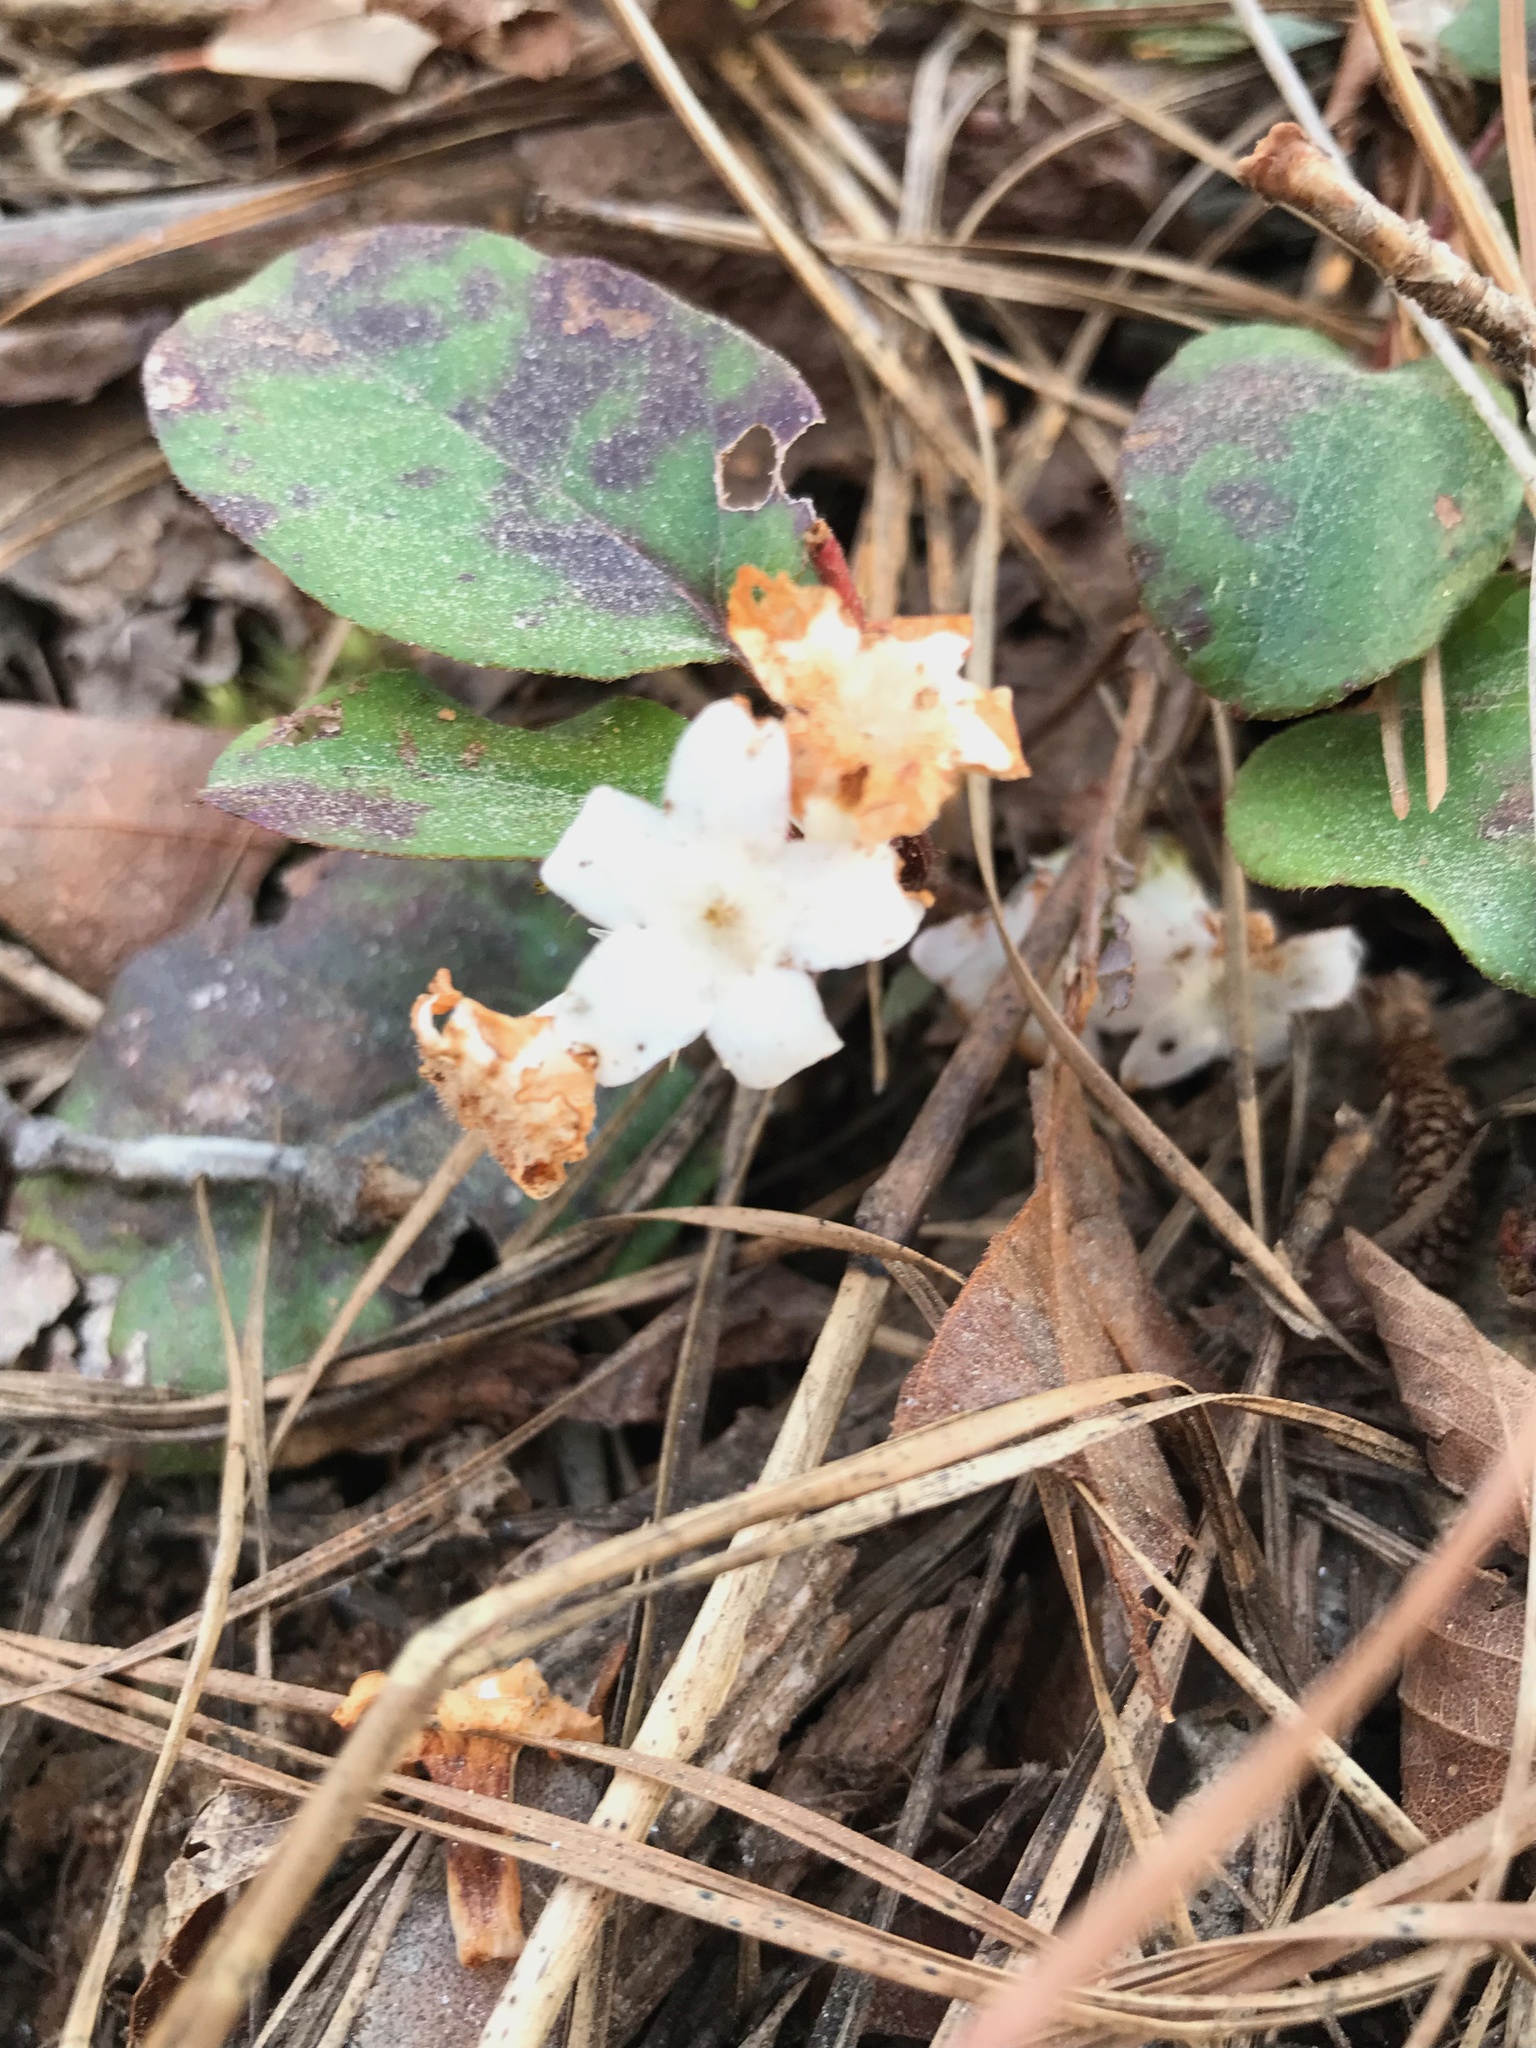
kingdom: Plantae
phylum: Tracheophyta
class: Magnoliopsida
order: Ericales
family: Ericaceae
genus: Epigaea
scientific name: Epigaea repens
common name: Gravelroot
